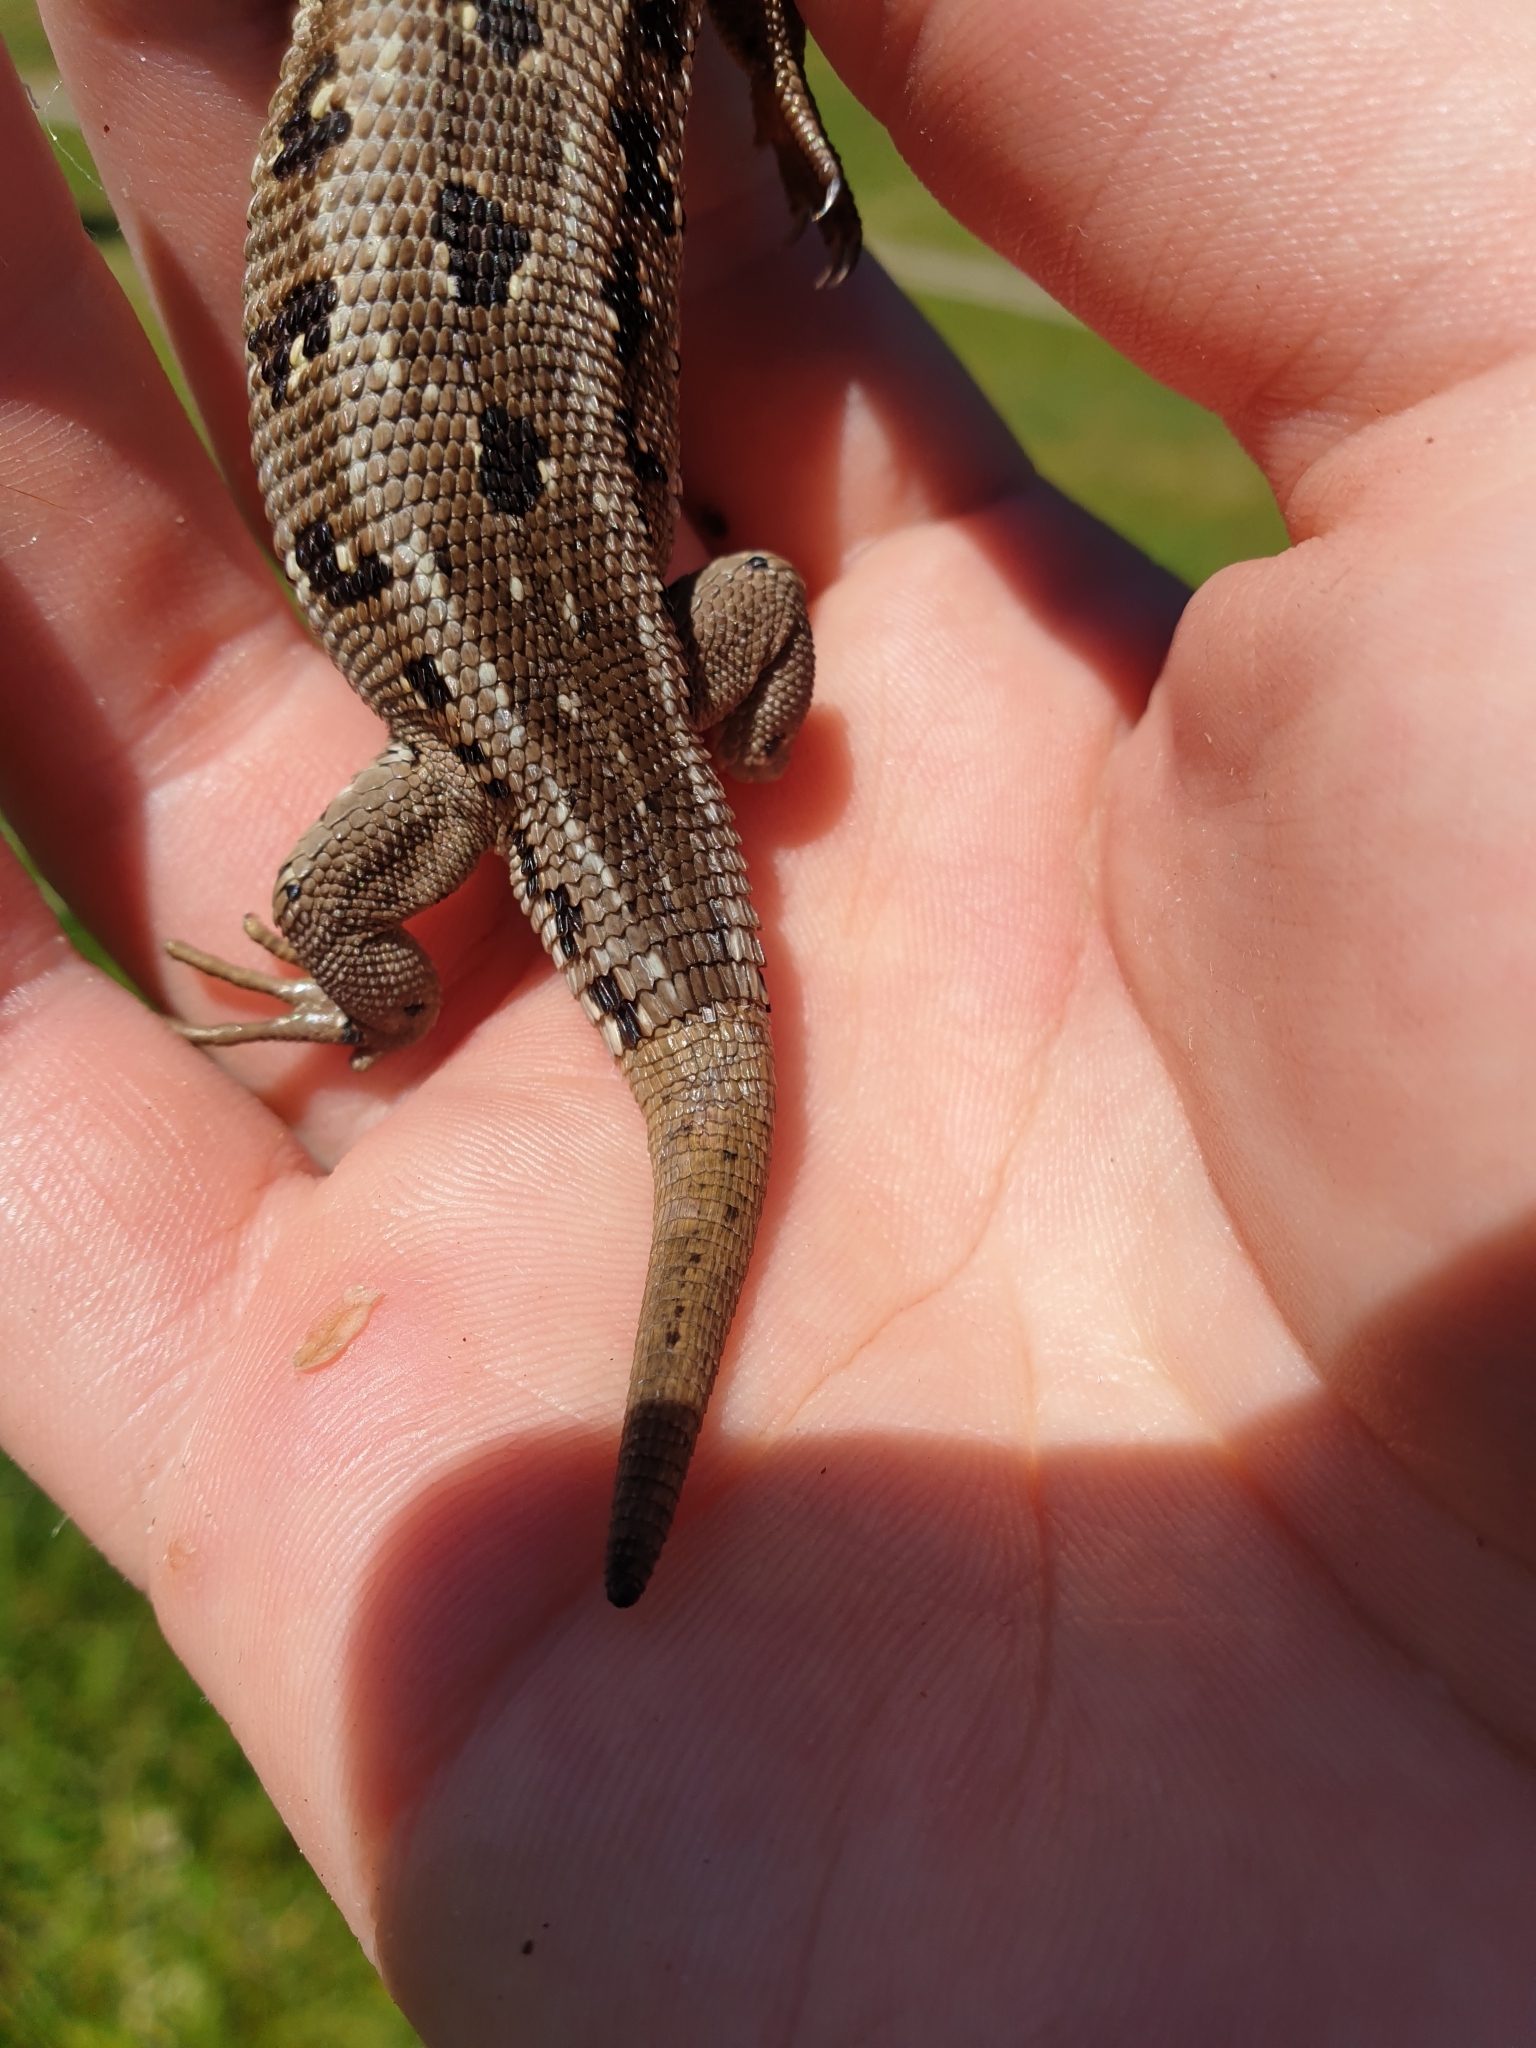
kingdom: Animalia
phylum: Chordata
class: Squamata
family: Lacertidae
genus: Lacerta
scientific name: Lacerta agilis
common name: Sand lizard
